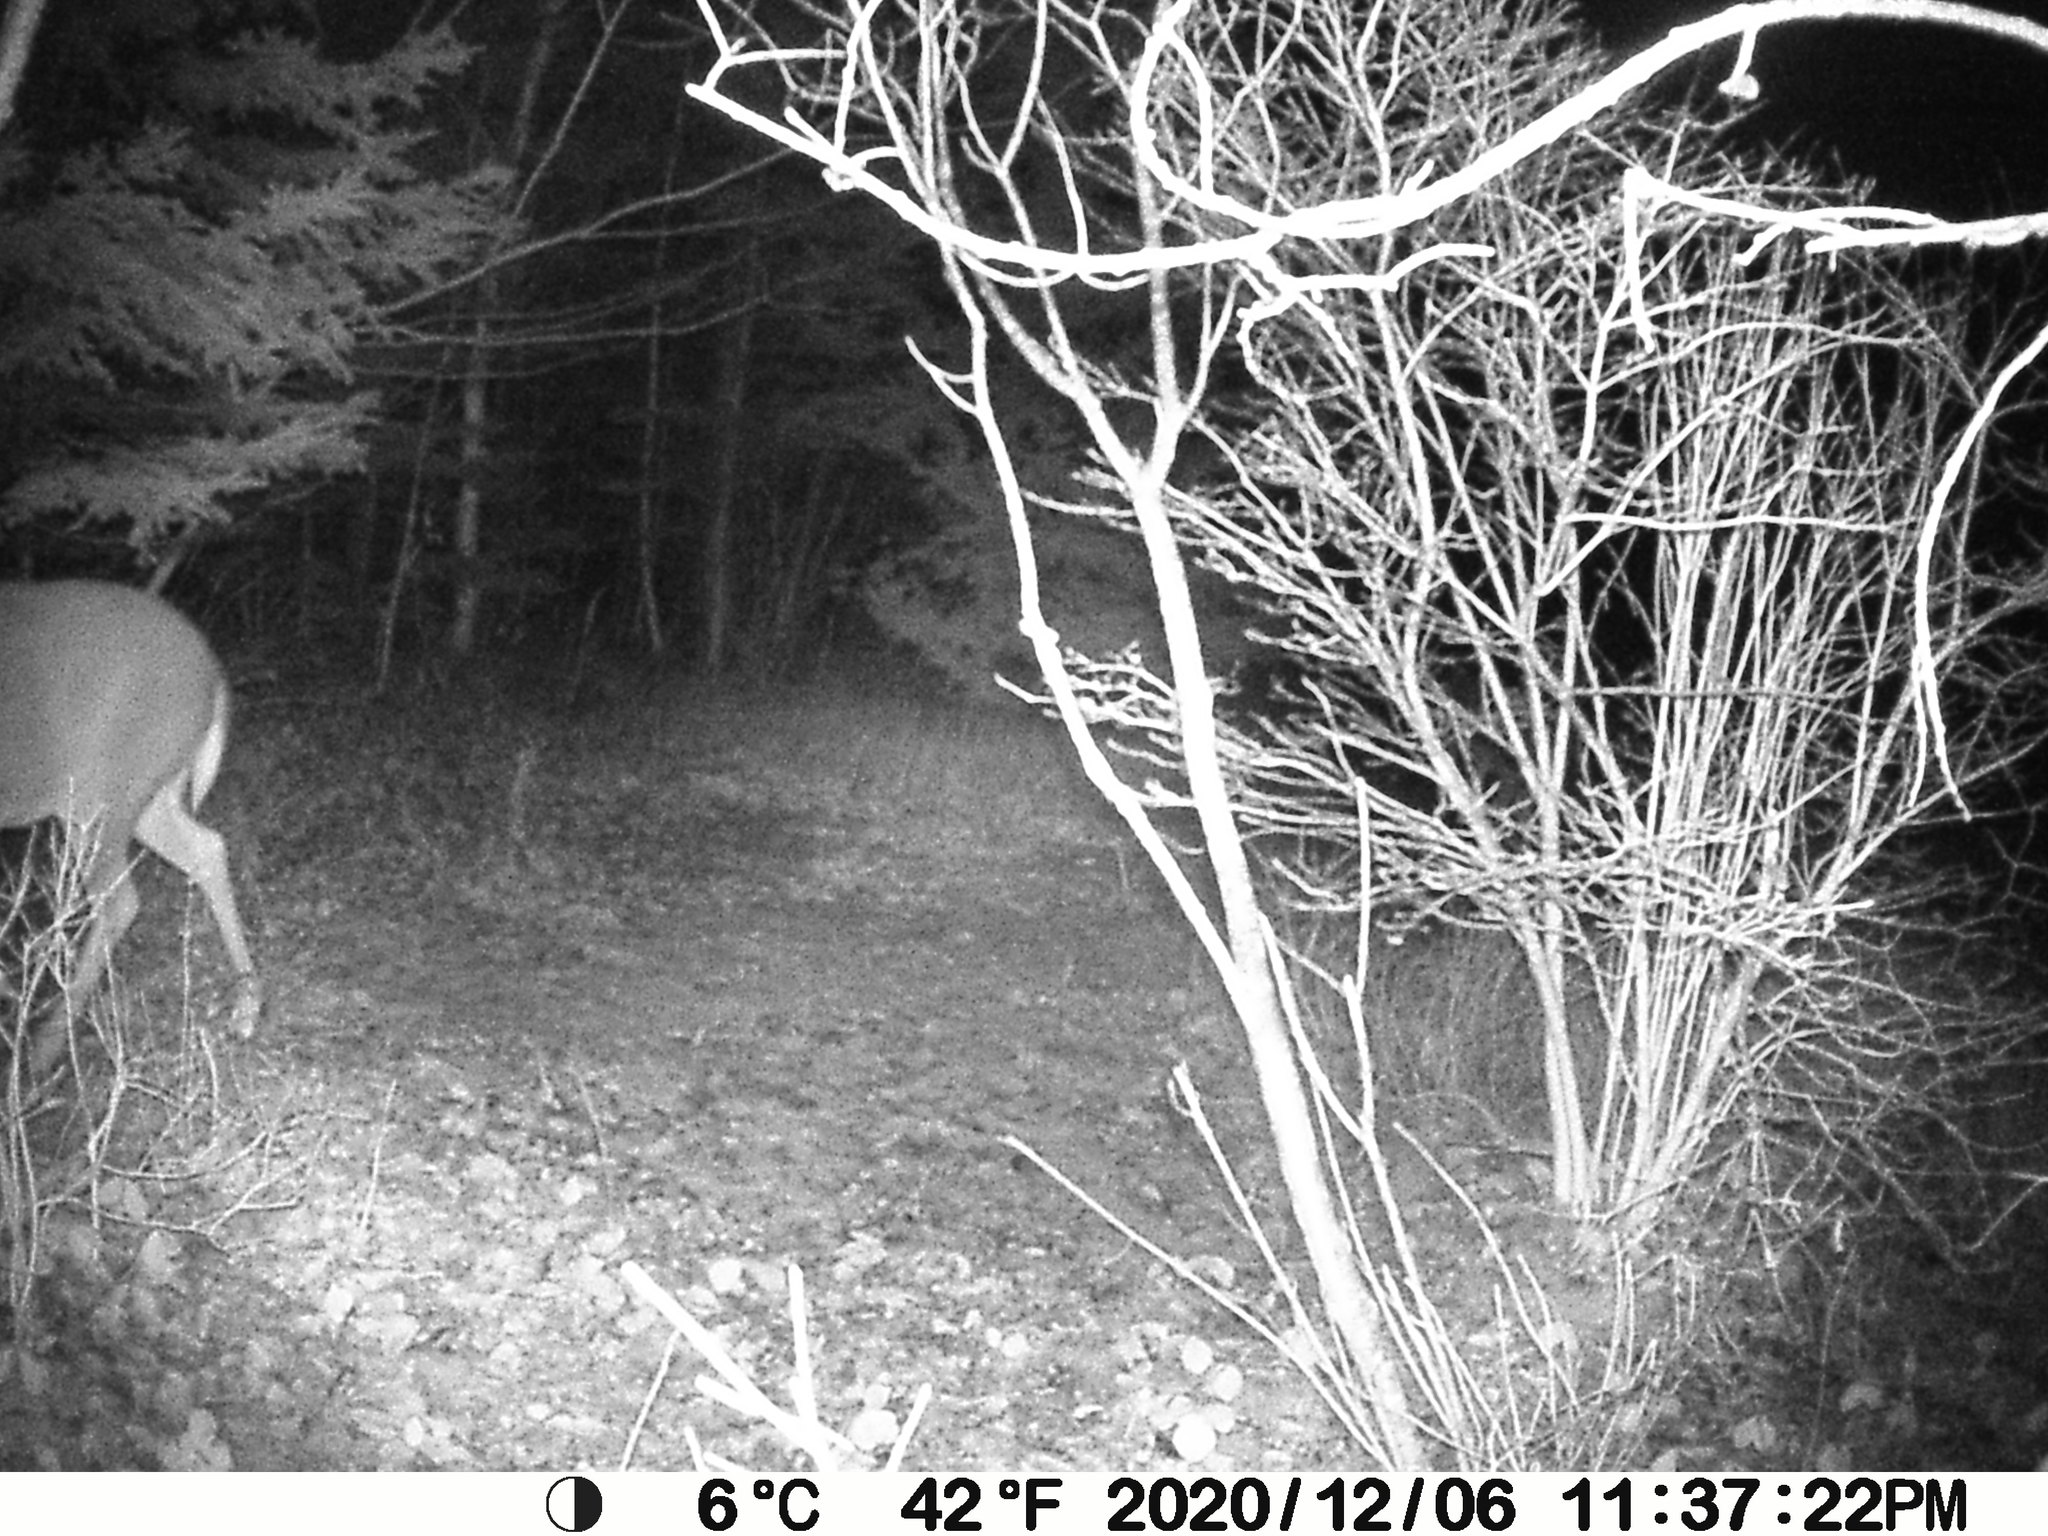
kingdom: Animalia
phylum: Chordata
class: Mammalia
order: Artiodactyla
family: Cervidae
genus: Odocoileus
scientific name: Odocoileus virginianus
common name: White-tailed deer
